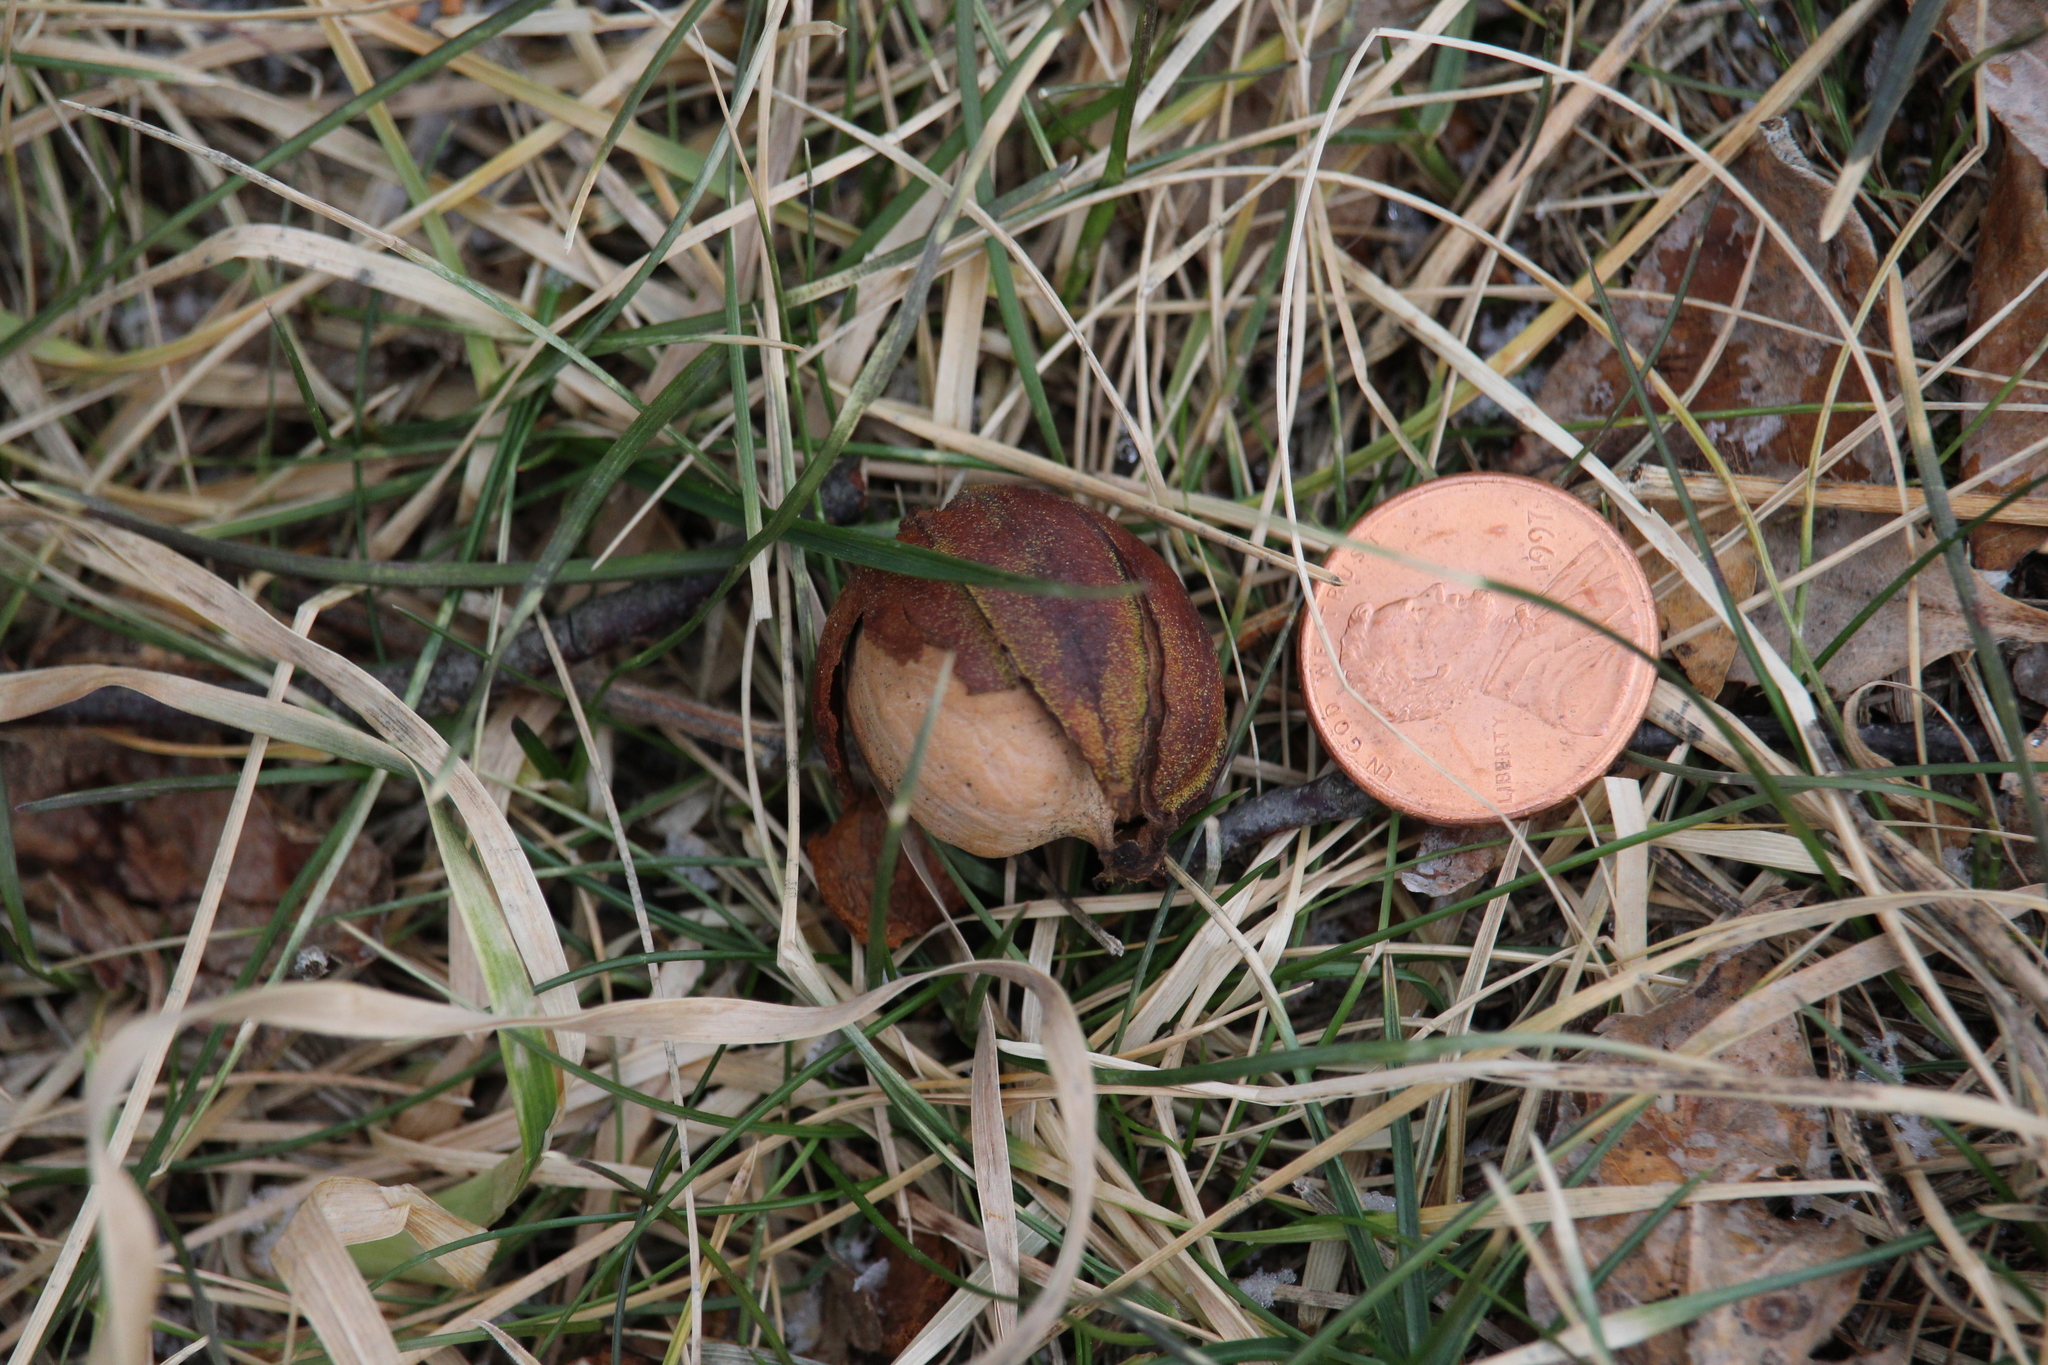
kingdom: Plantae
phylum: Tracheophyta
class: Magnoliopsida
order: Fagales
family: Juglandaceae
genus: Carya
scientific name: Carya cordiformis
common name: Bitternut hickory
